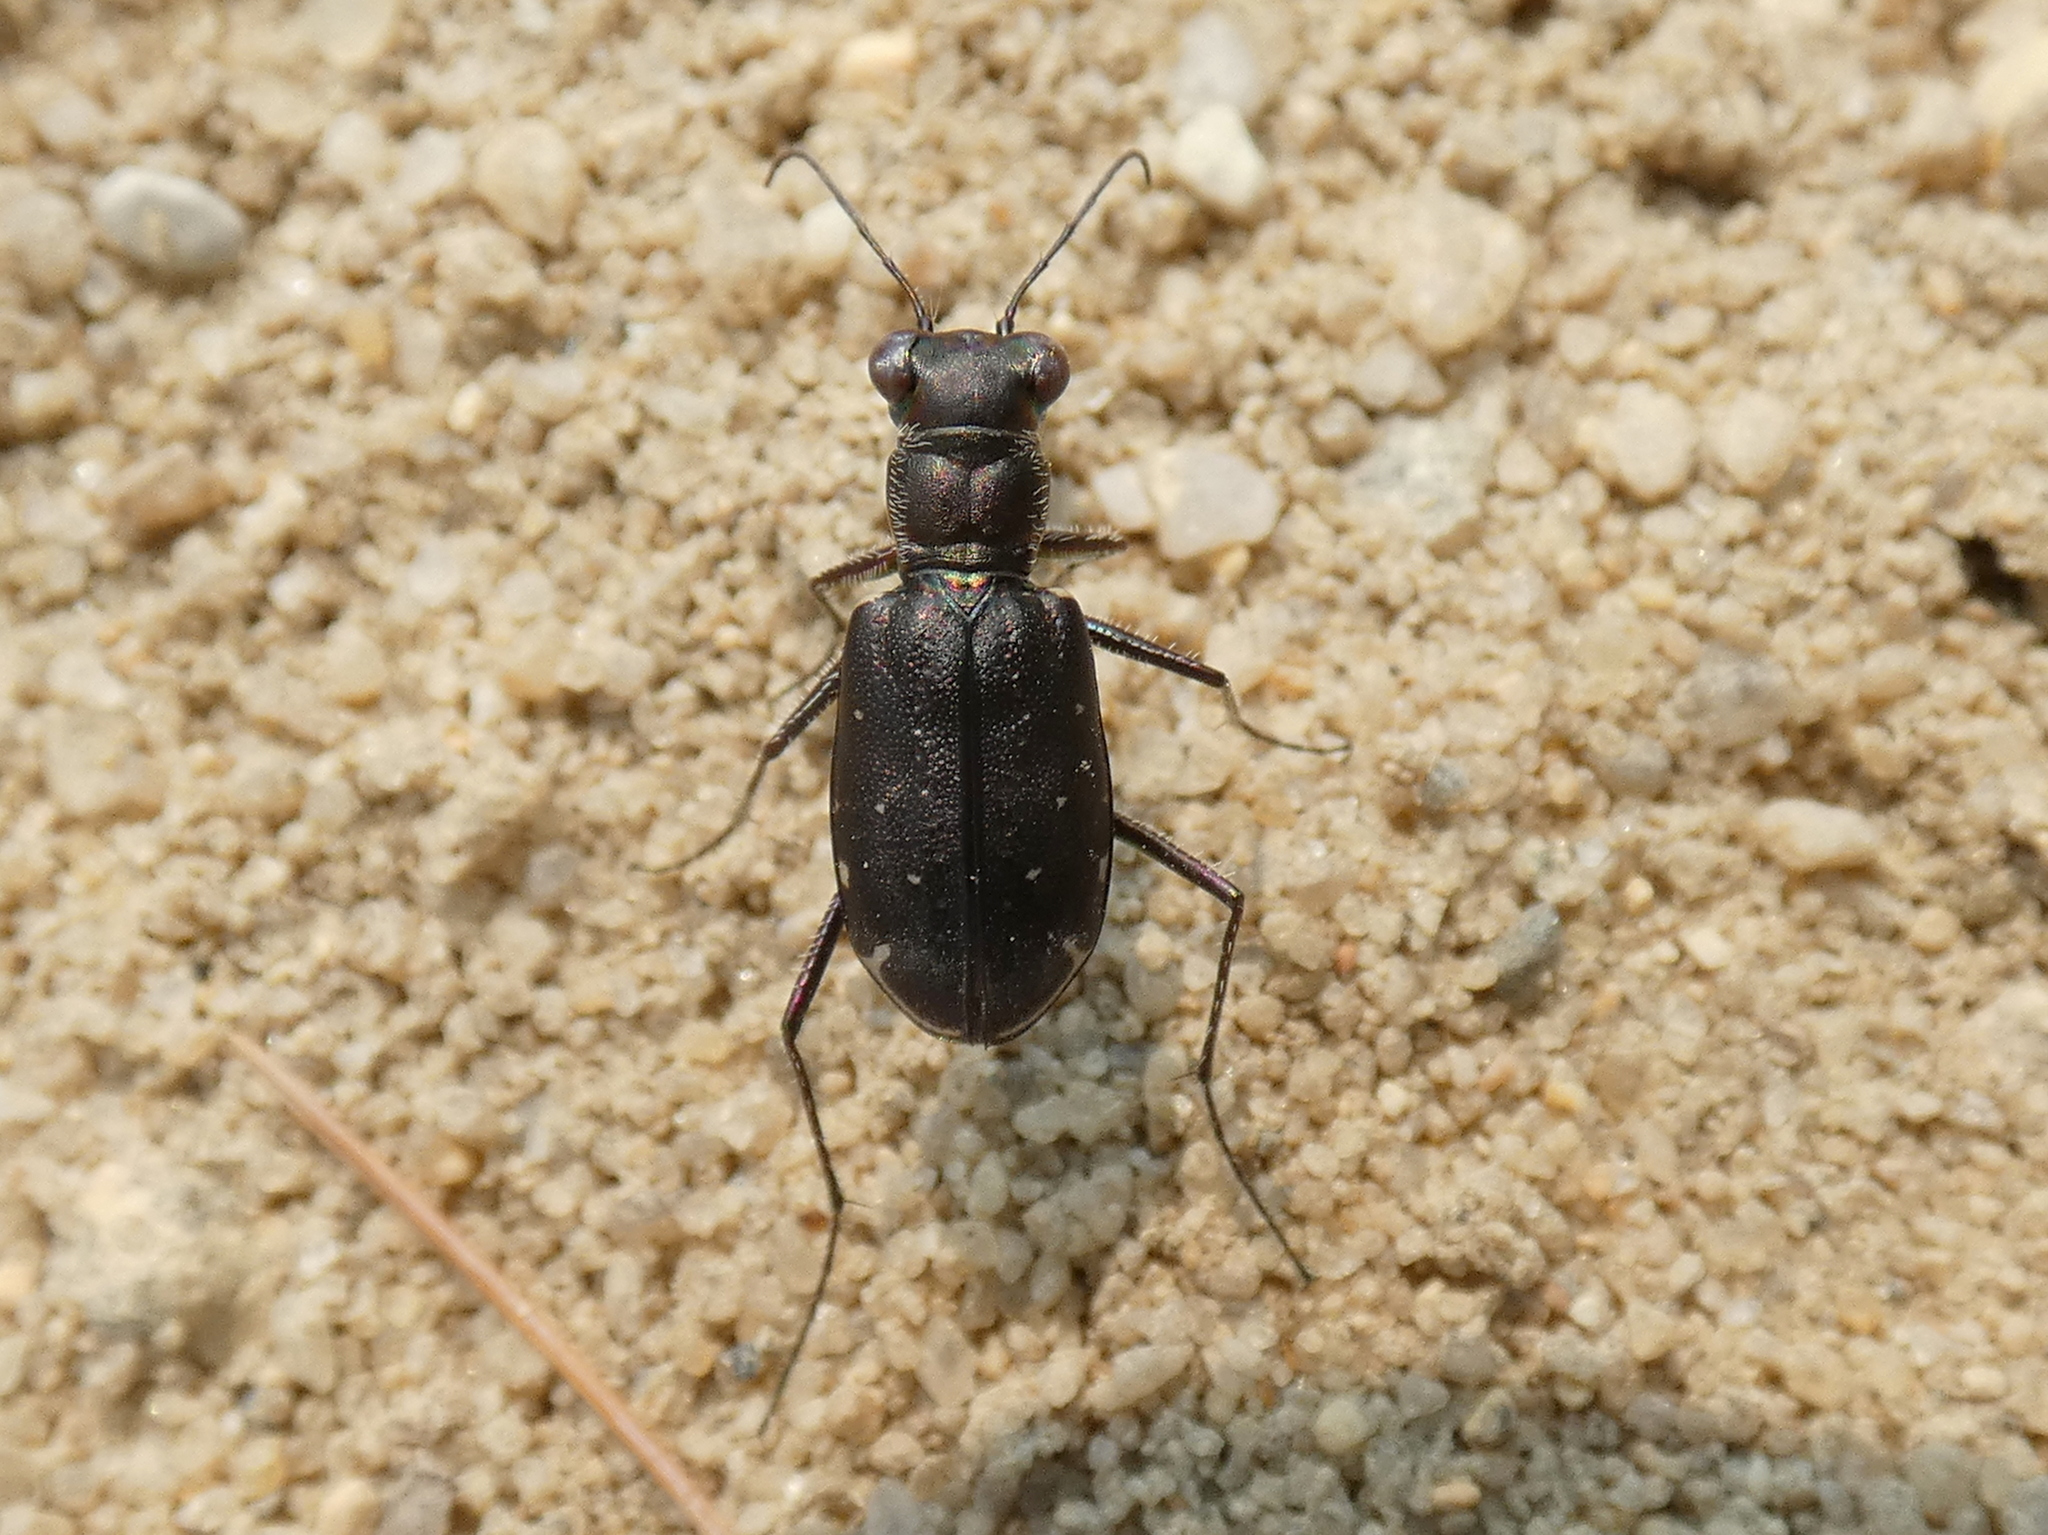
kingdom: Animalia
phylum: Arthropoda
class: Insecta
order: Coleoptera
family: Carabidae
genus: Cicindela
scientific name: Cicindela punctulata
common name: Punctured tiger beetle
